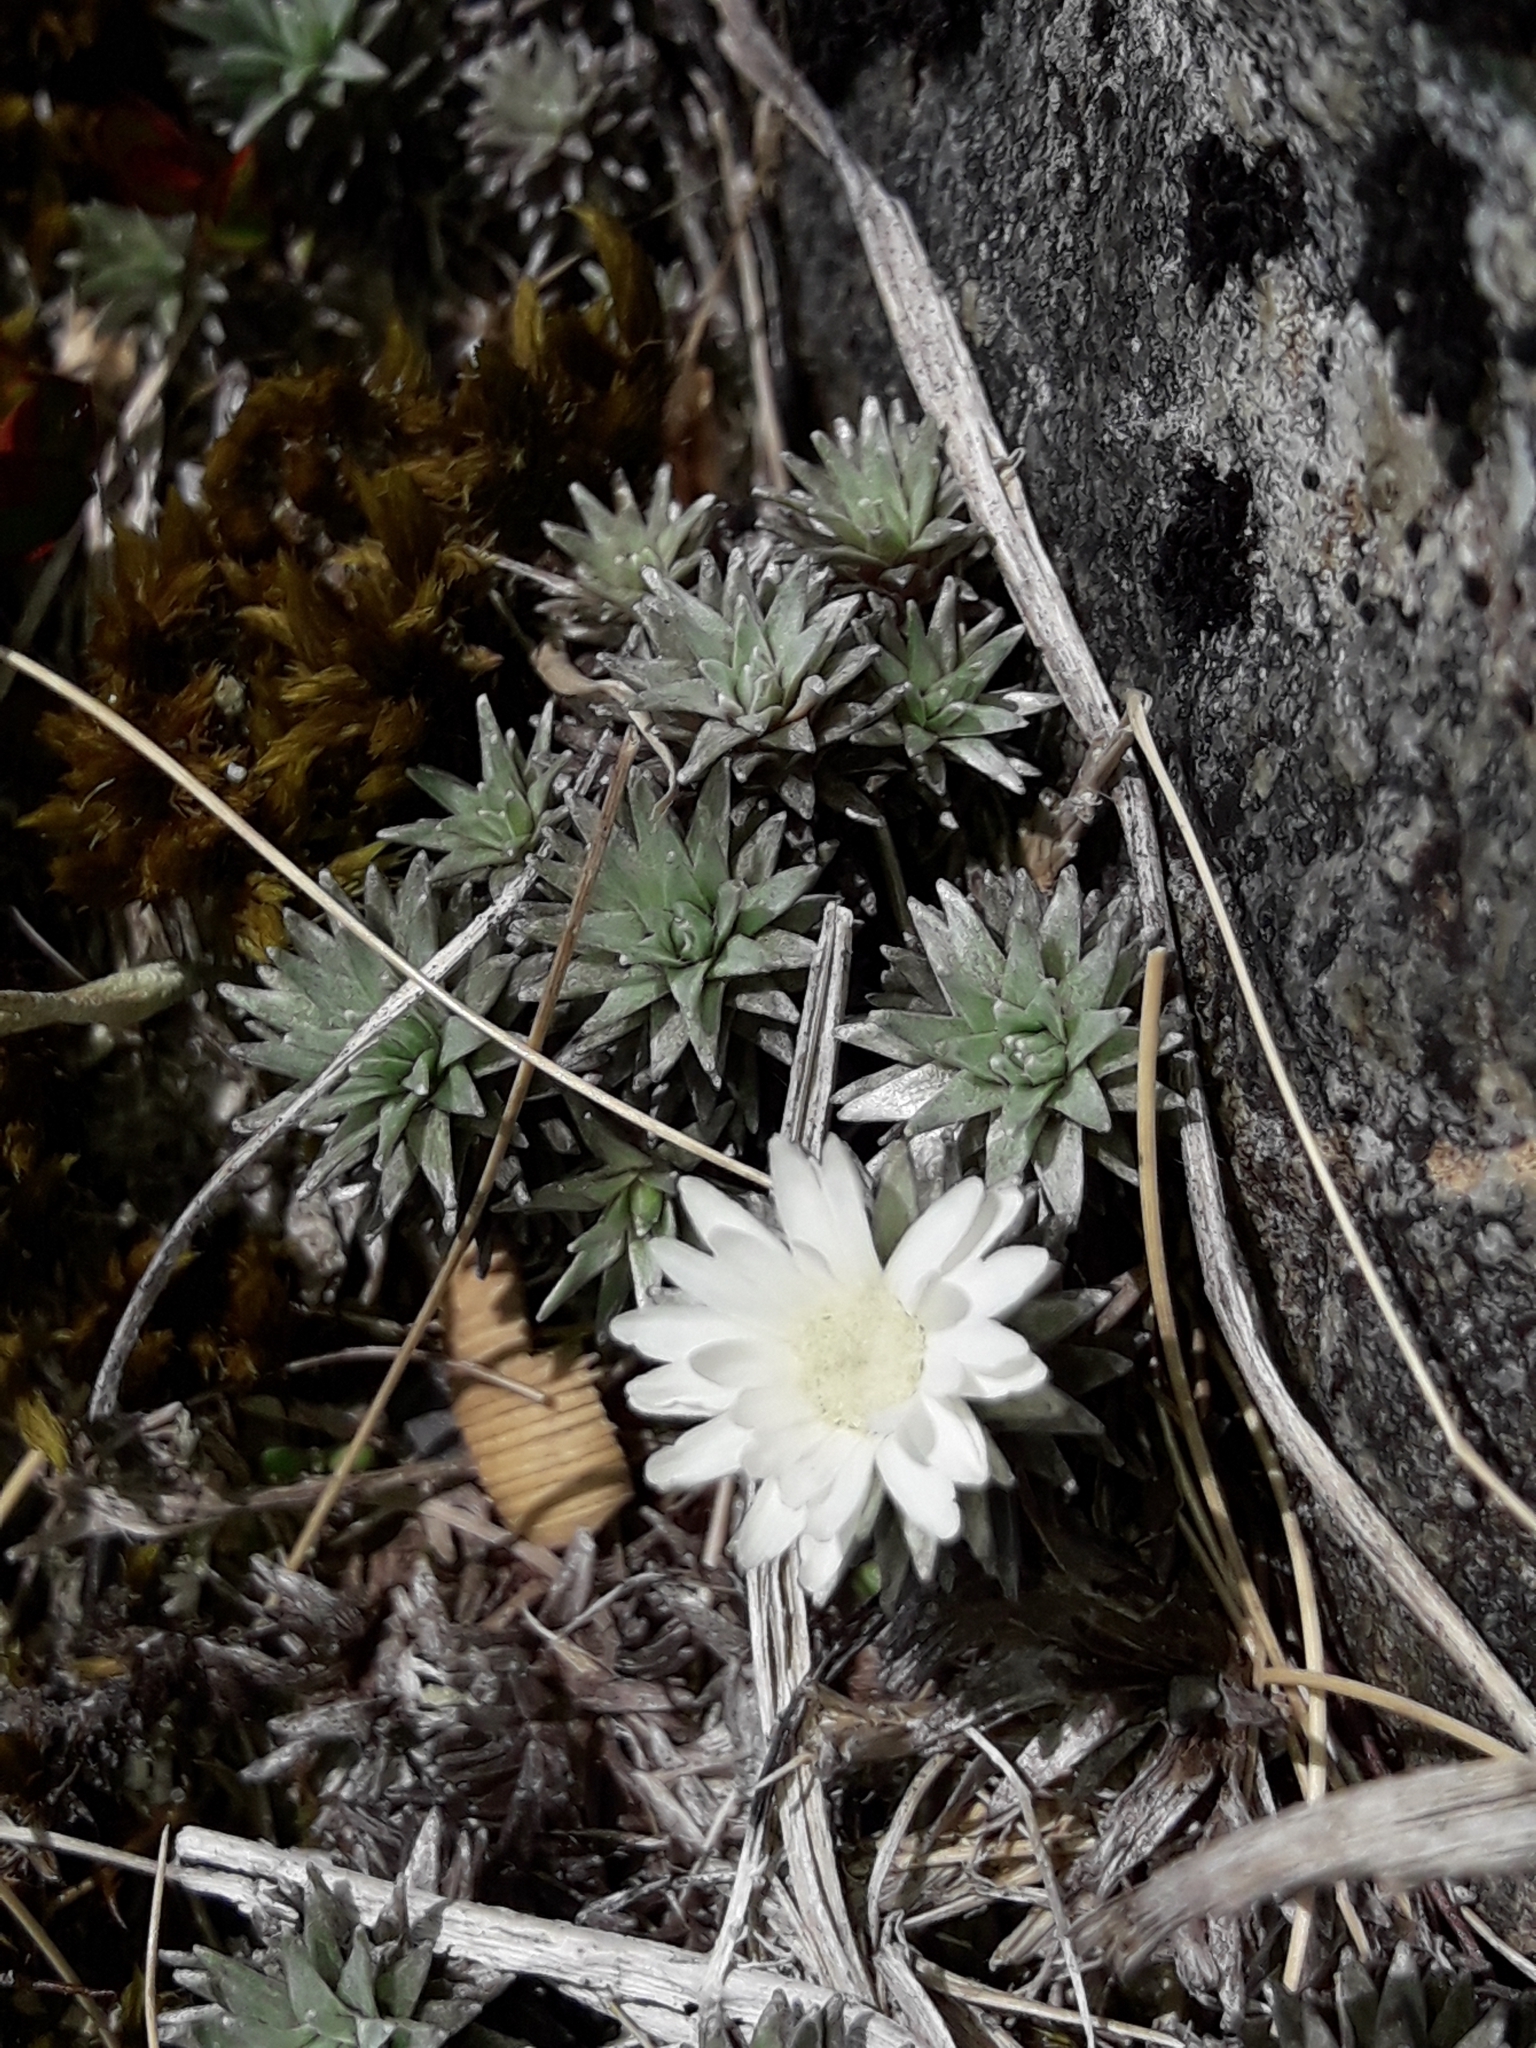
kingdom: Plantae
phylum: Tracheophyta
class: Magnoliopsida
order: Asterales
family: Asteraceae
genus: Raoulia
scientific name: Raoulia grandiflora
